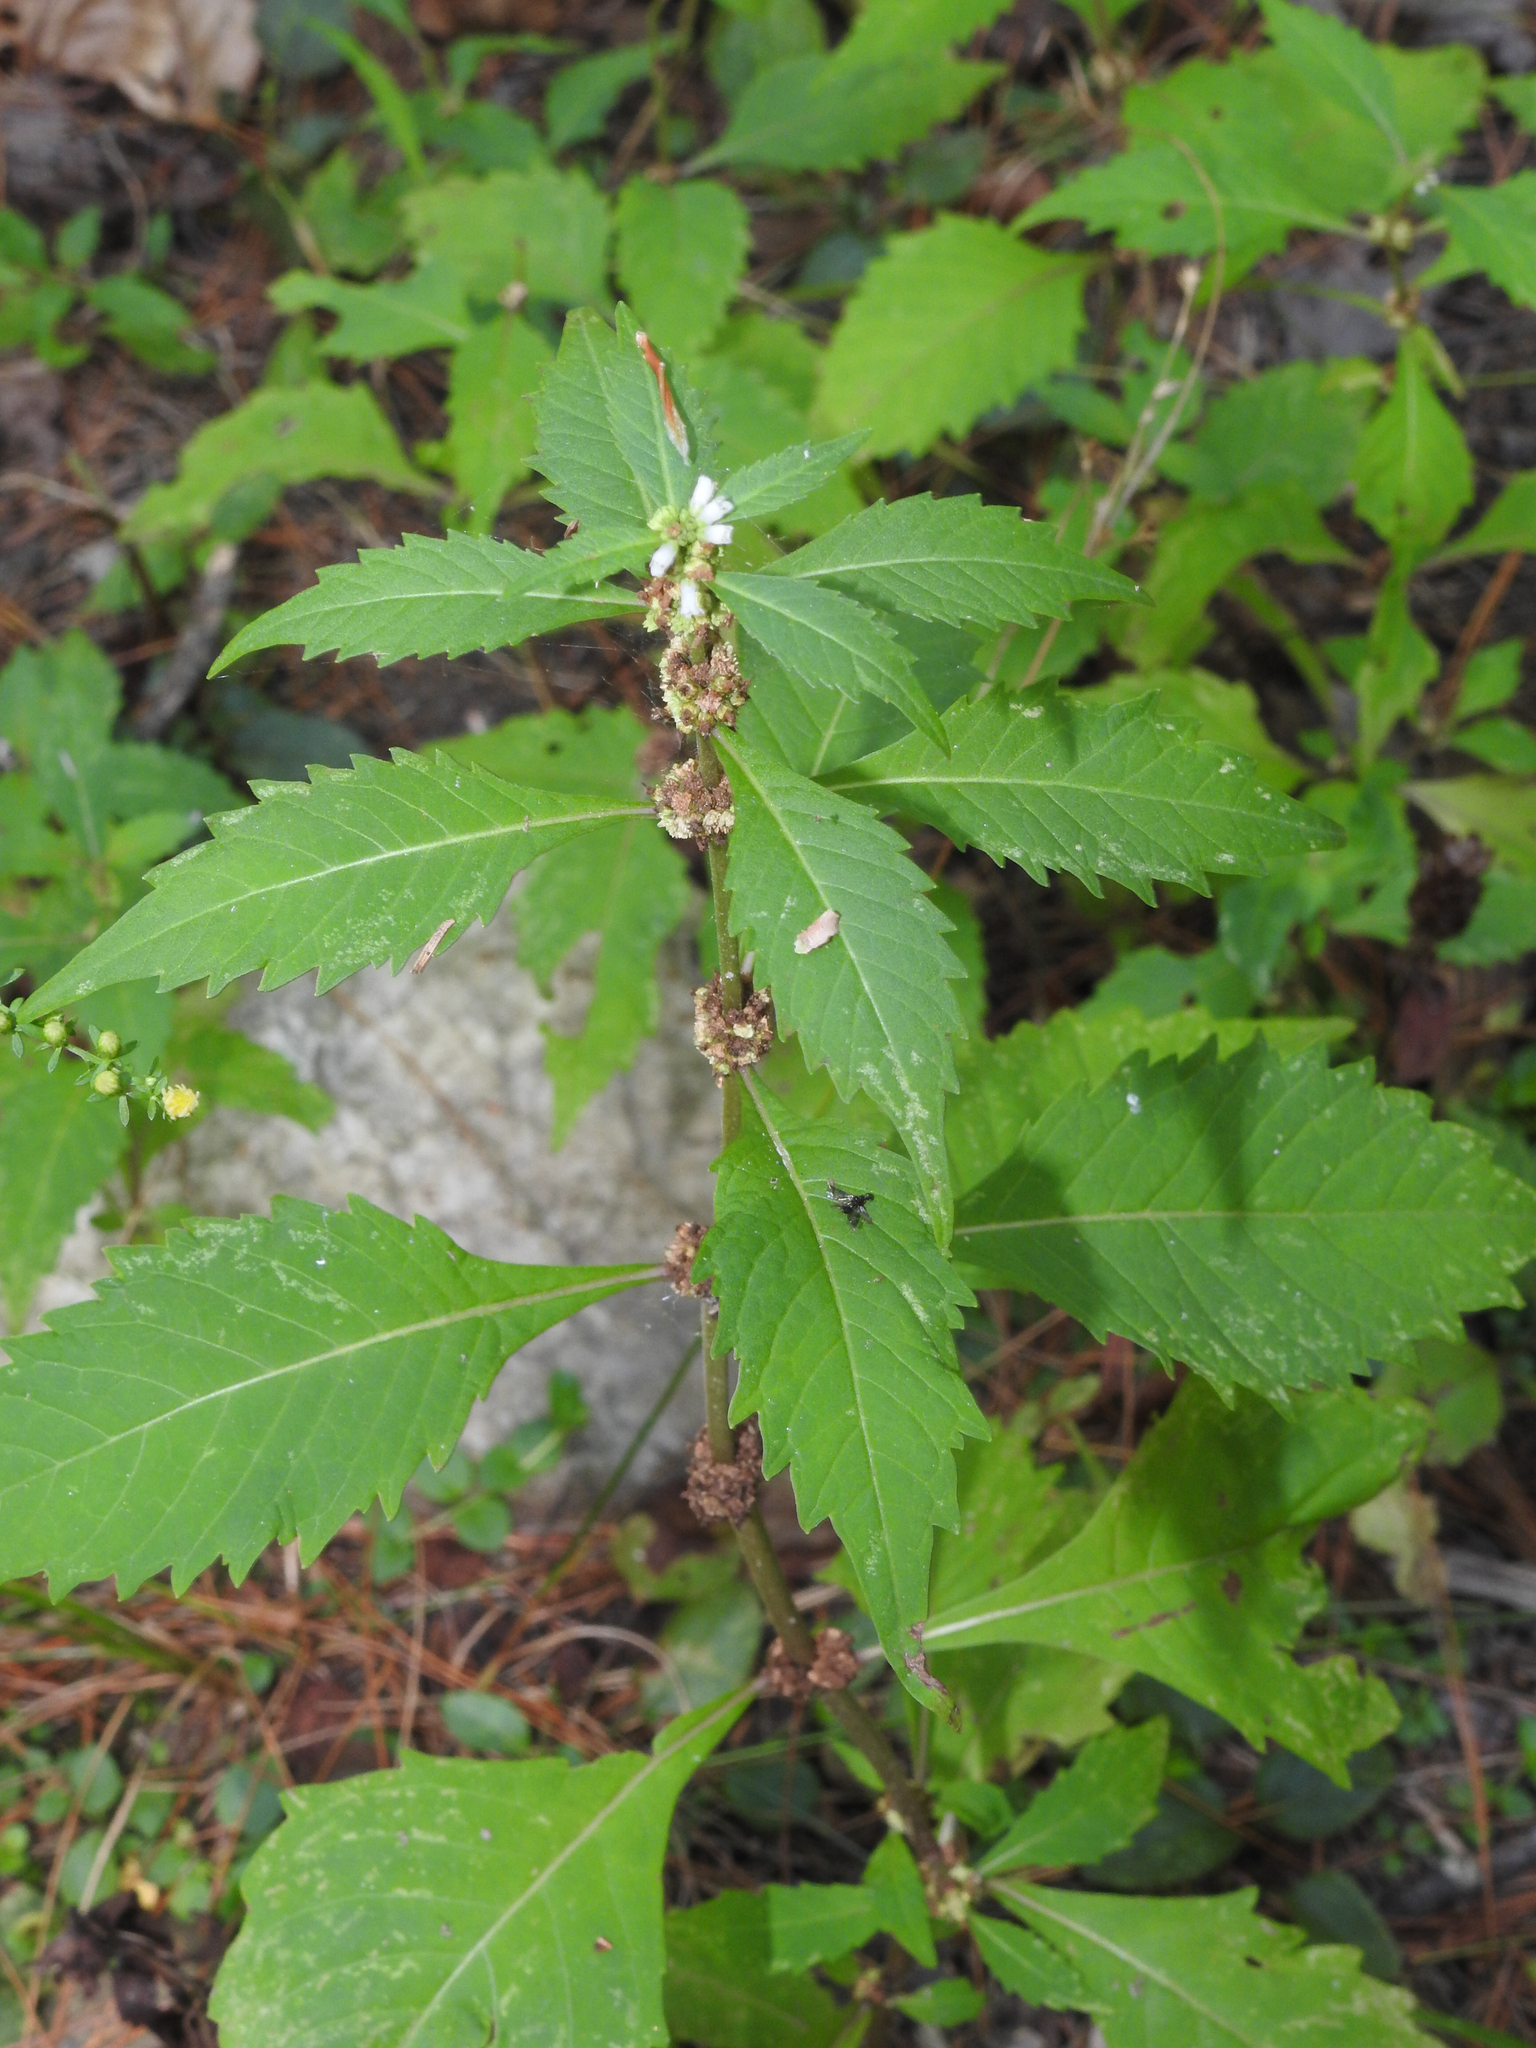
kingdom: Plantae
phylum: Tracheophyta
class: Magnoliopsida
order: Lamiales
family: Lamiaceae
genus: Lycopus
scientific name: Lycopus uniflorus
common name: Northern bugleweed
